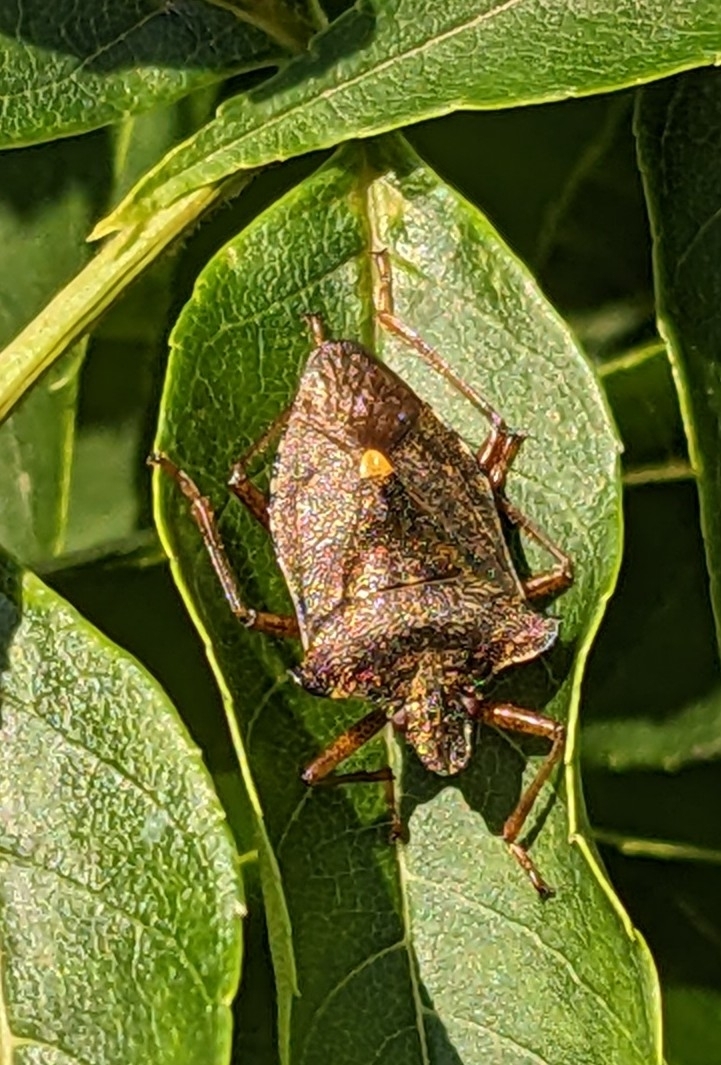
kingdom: Animalia
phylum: Arthropoda
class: Insecta
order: Hemiptera
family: Pentatomidae
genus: Pentatoma
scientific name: Pentatoma rufipes
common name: Forest bug
